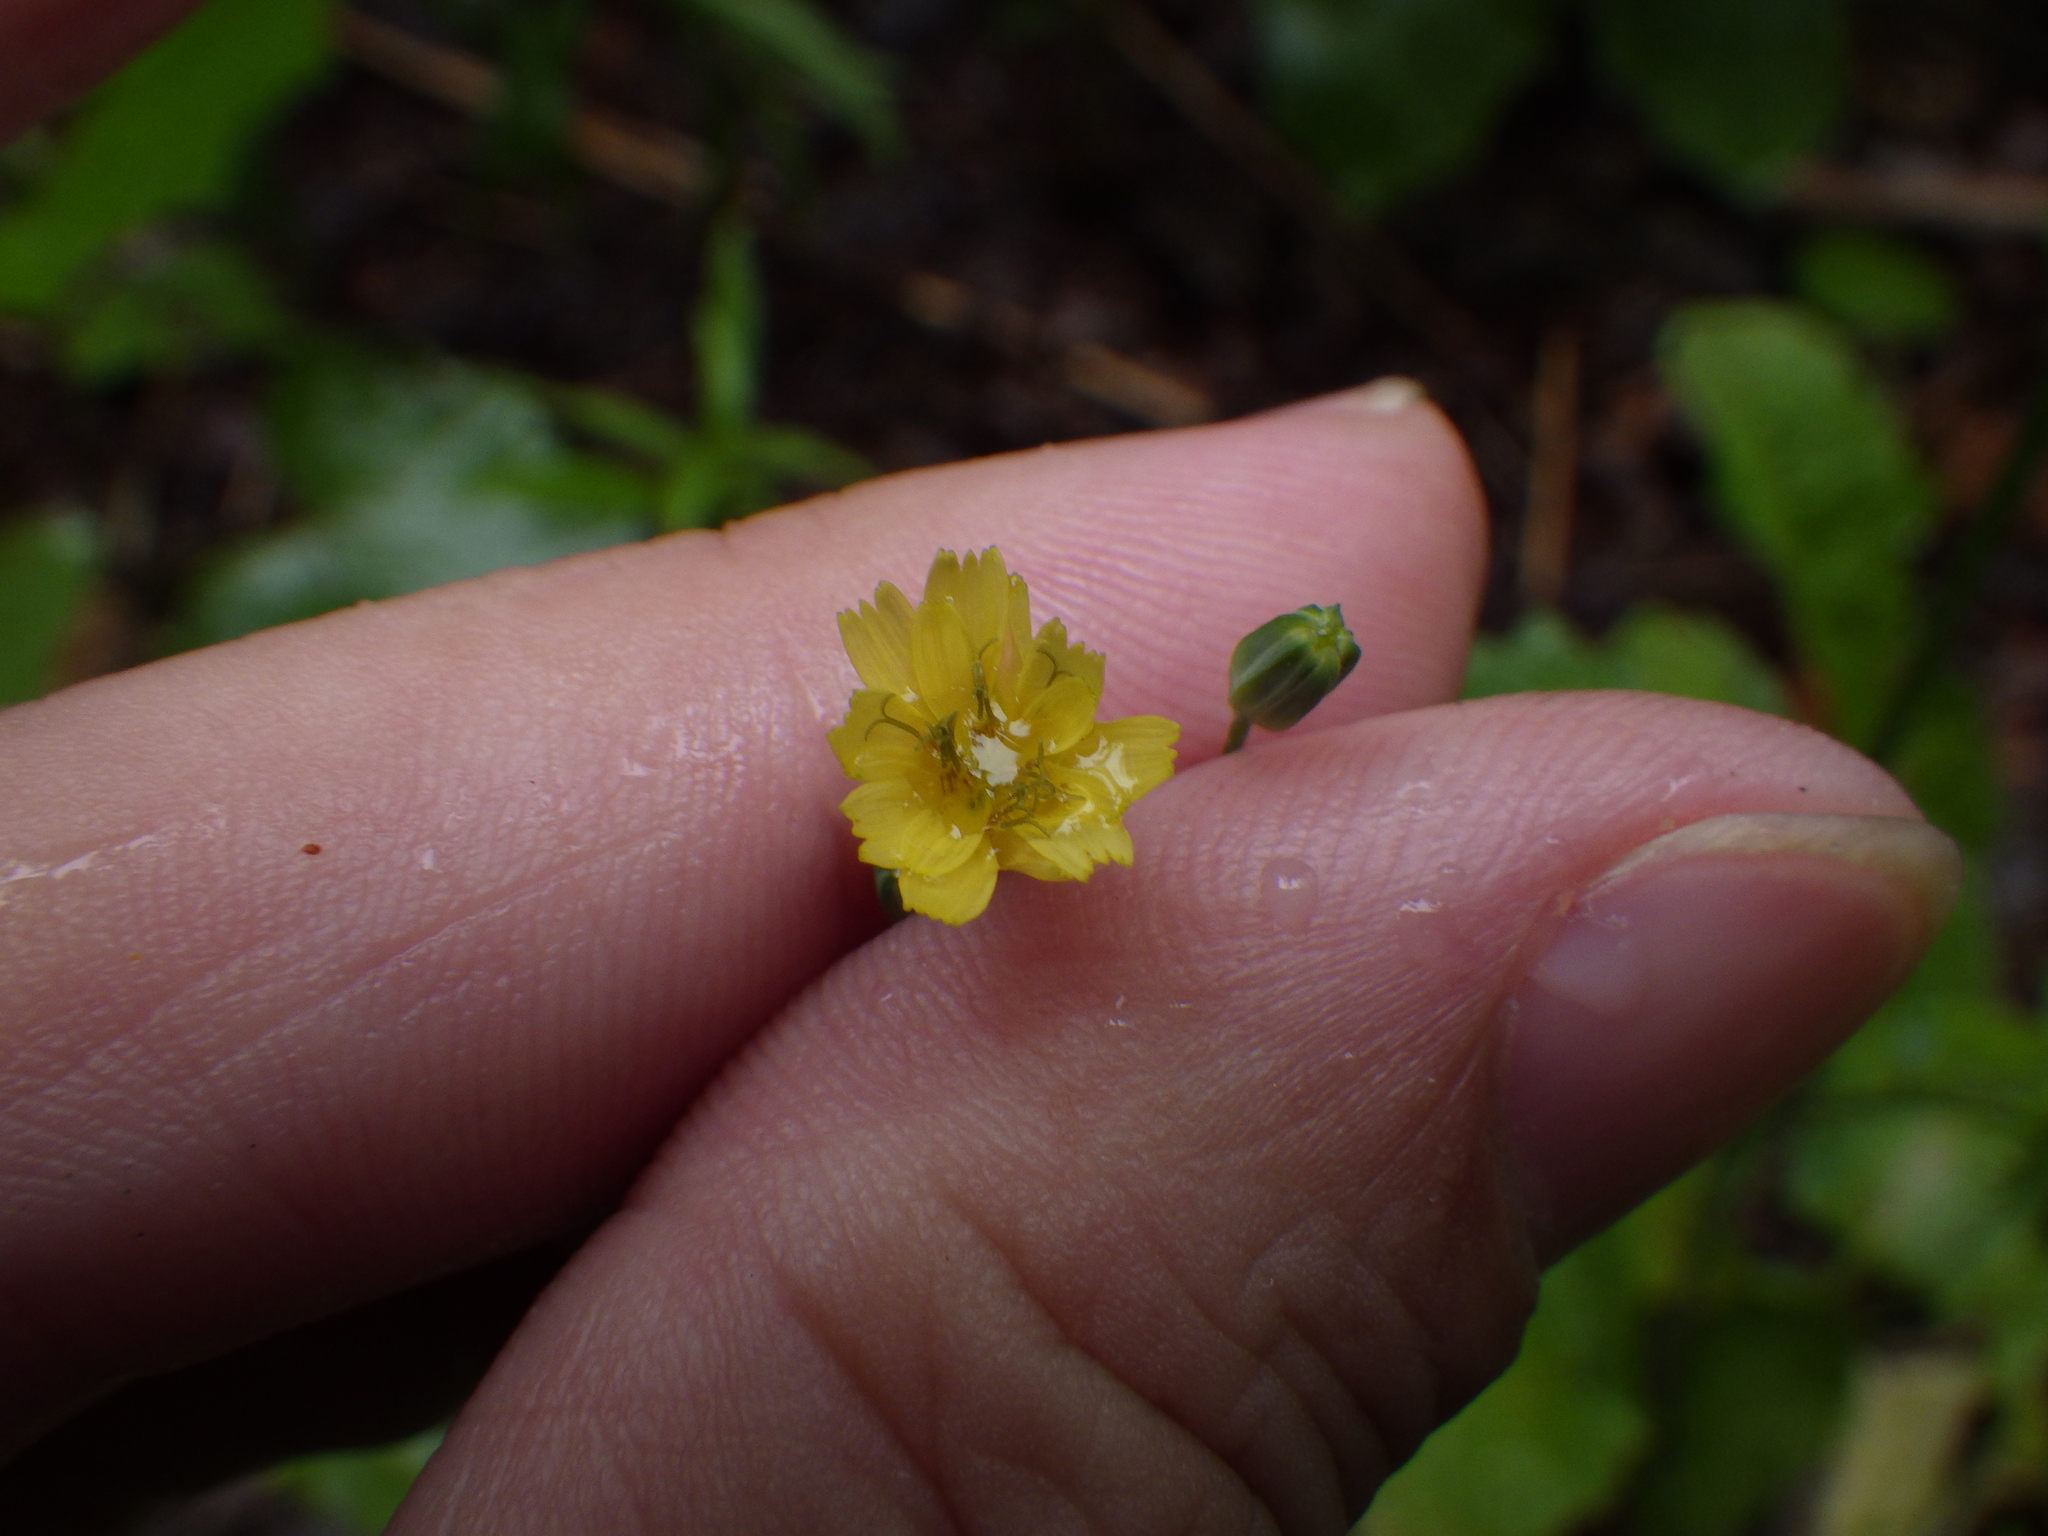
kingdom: Plantae
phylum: Tracheophyta
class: Magnoliopsida
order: Asterales
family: Asteraceae
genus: Lapsana
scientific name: Lapsana communis
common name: Nipplewort
